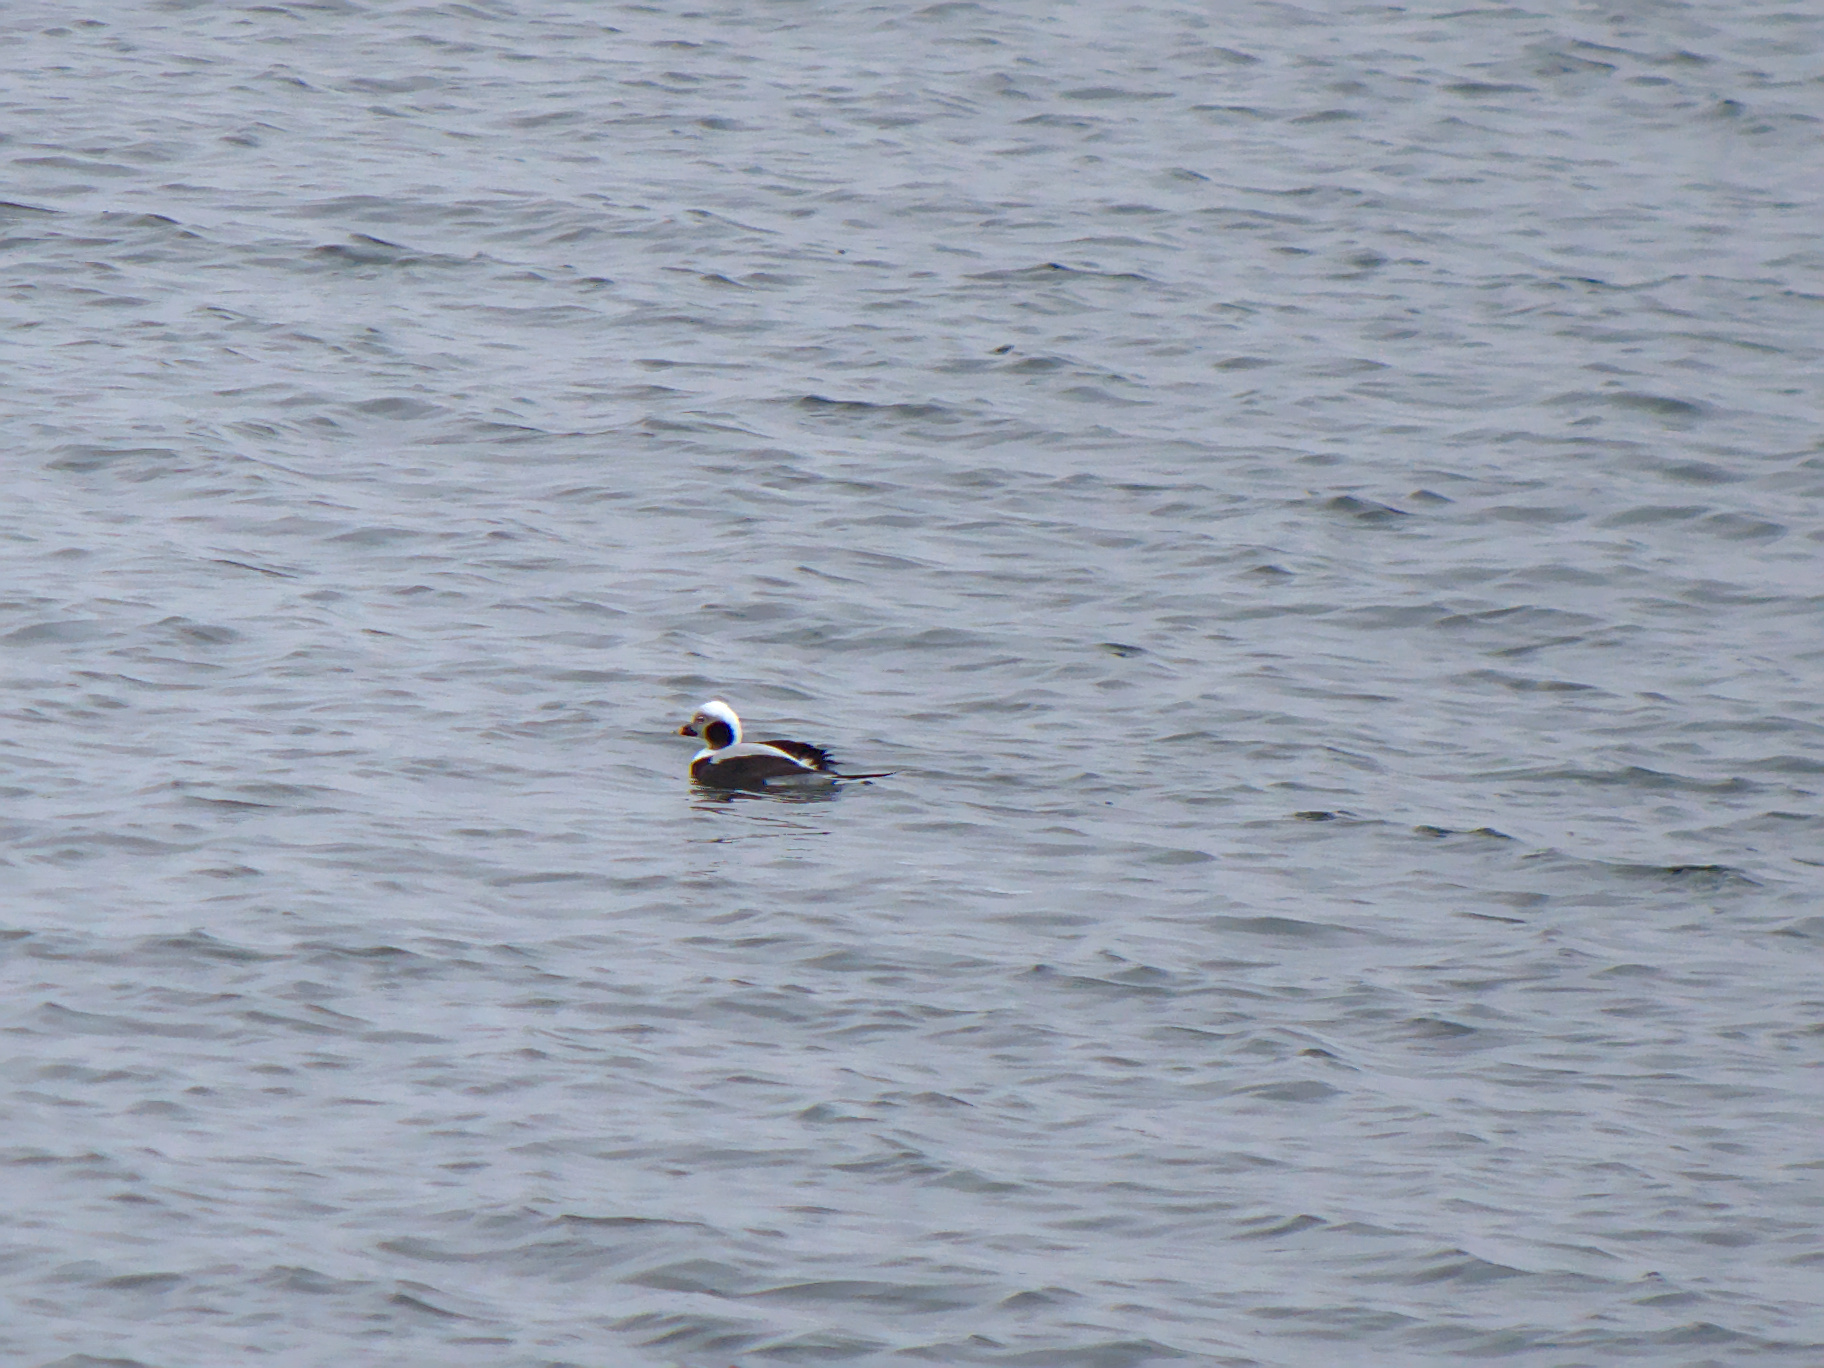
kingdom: Animalia
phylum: Chordata
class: Aves
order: Anseriformes
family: Anatidae
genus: Clangula
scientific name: Clangula hyemalis
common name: Long-tailed duck
